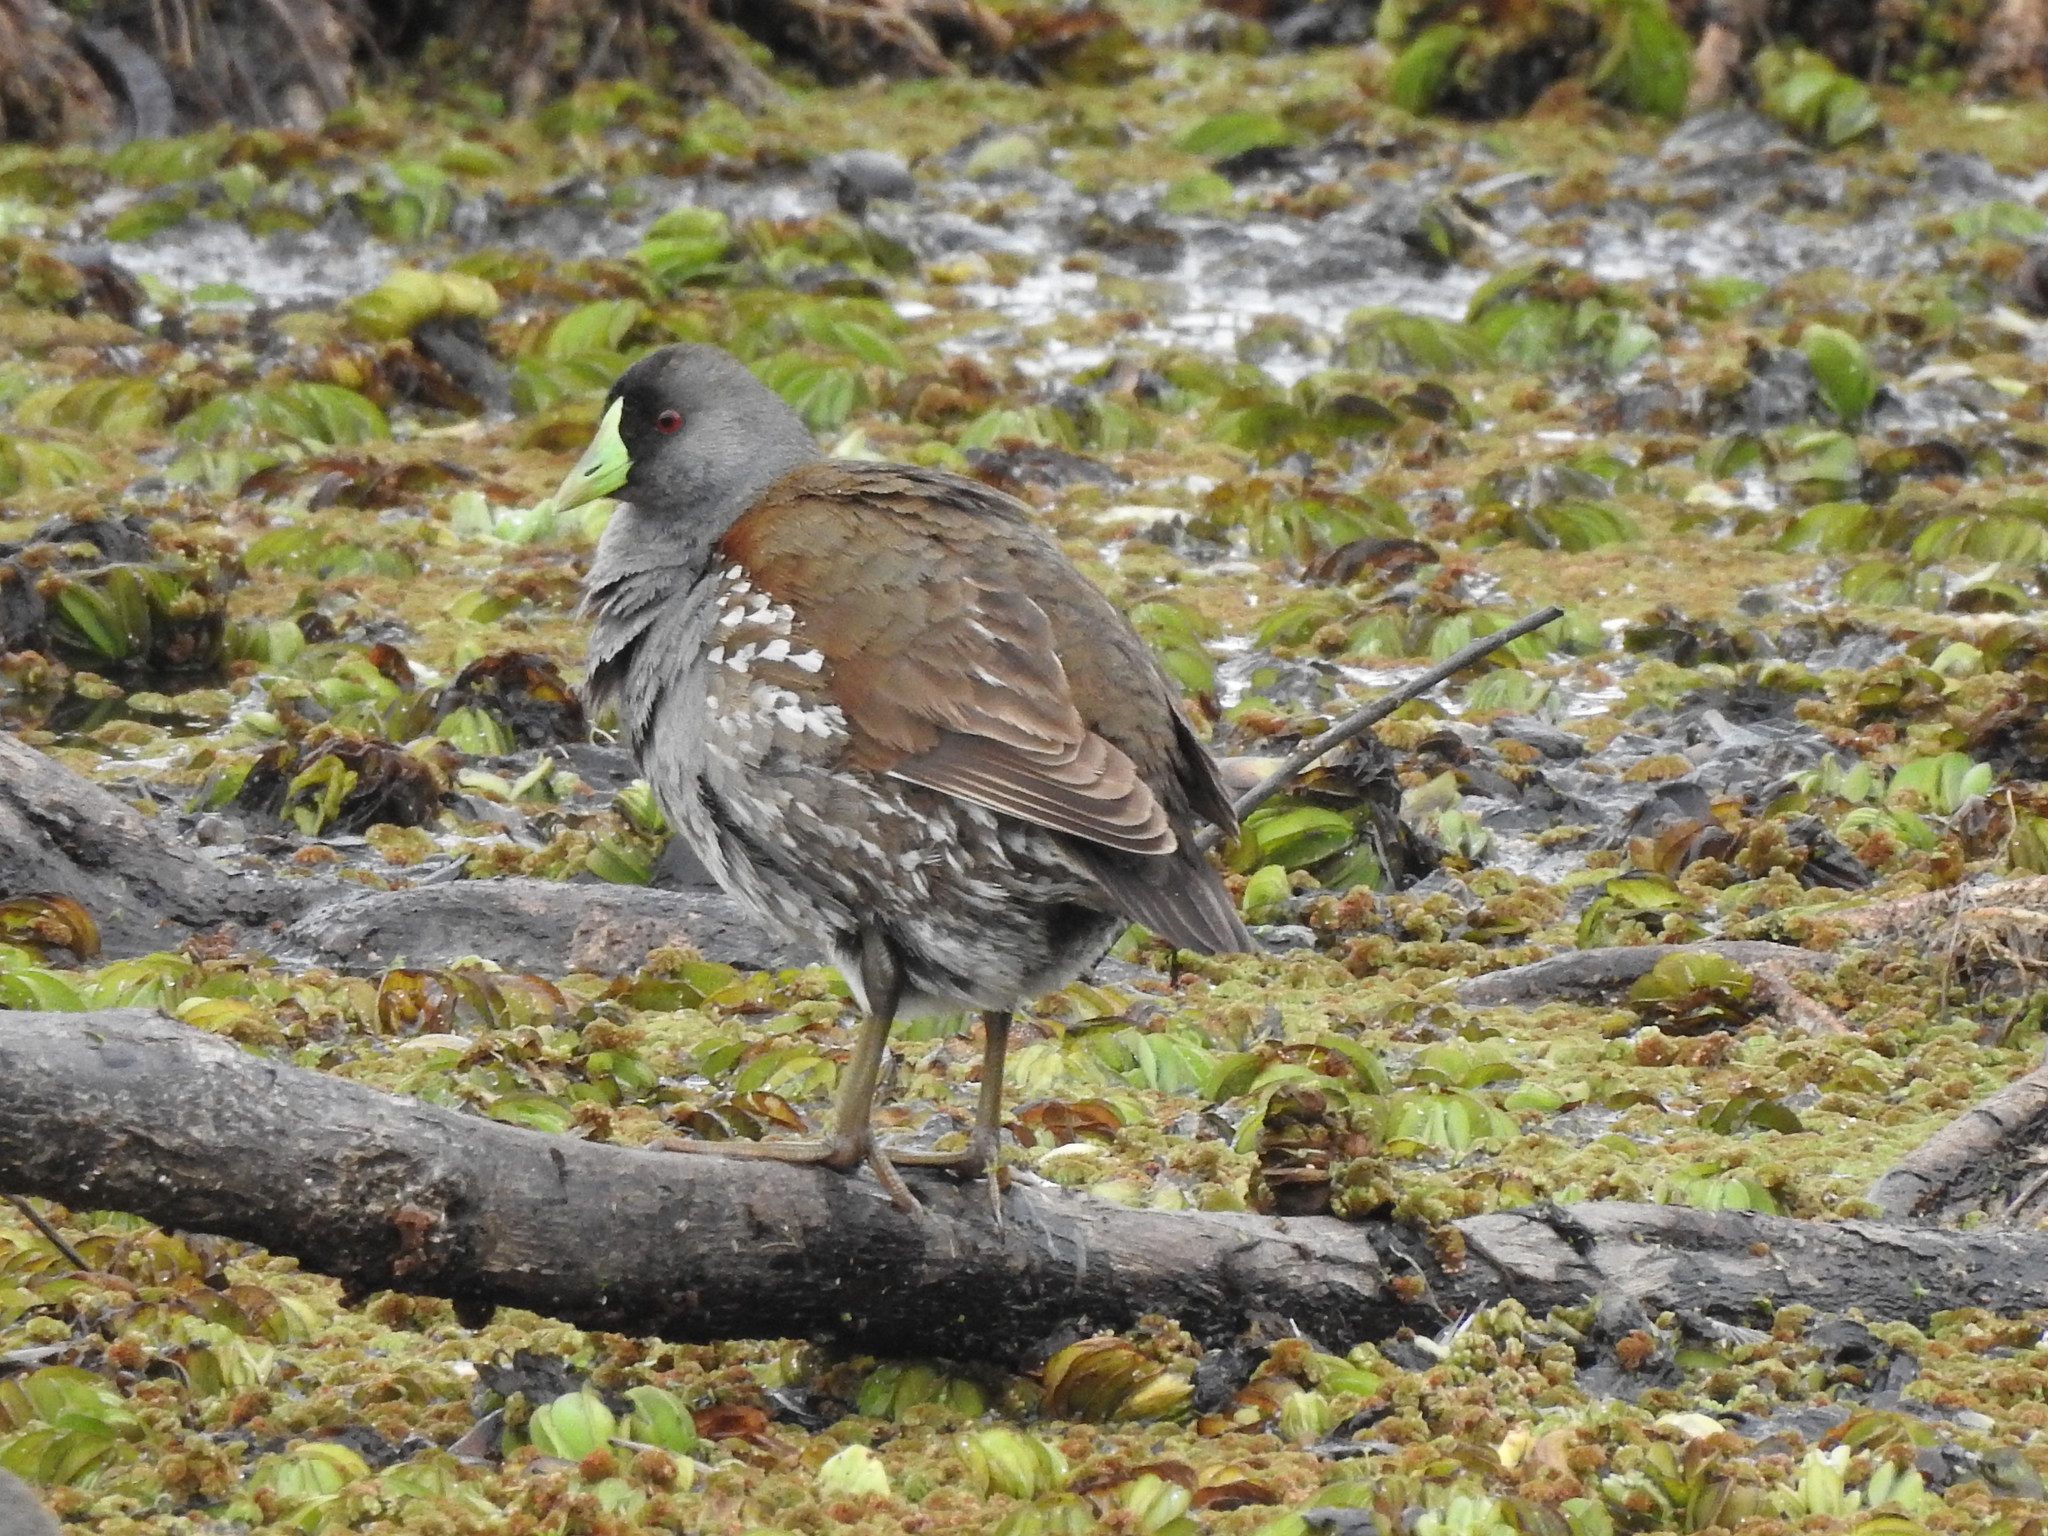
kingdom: Animalia
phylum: Chordata
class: Aves
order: Gruiformes
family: Rallidae
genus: Gallinula
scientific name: Gallinula melanops
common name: Spot-flanked gallinule
